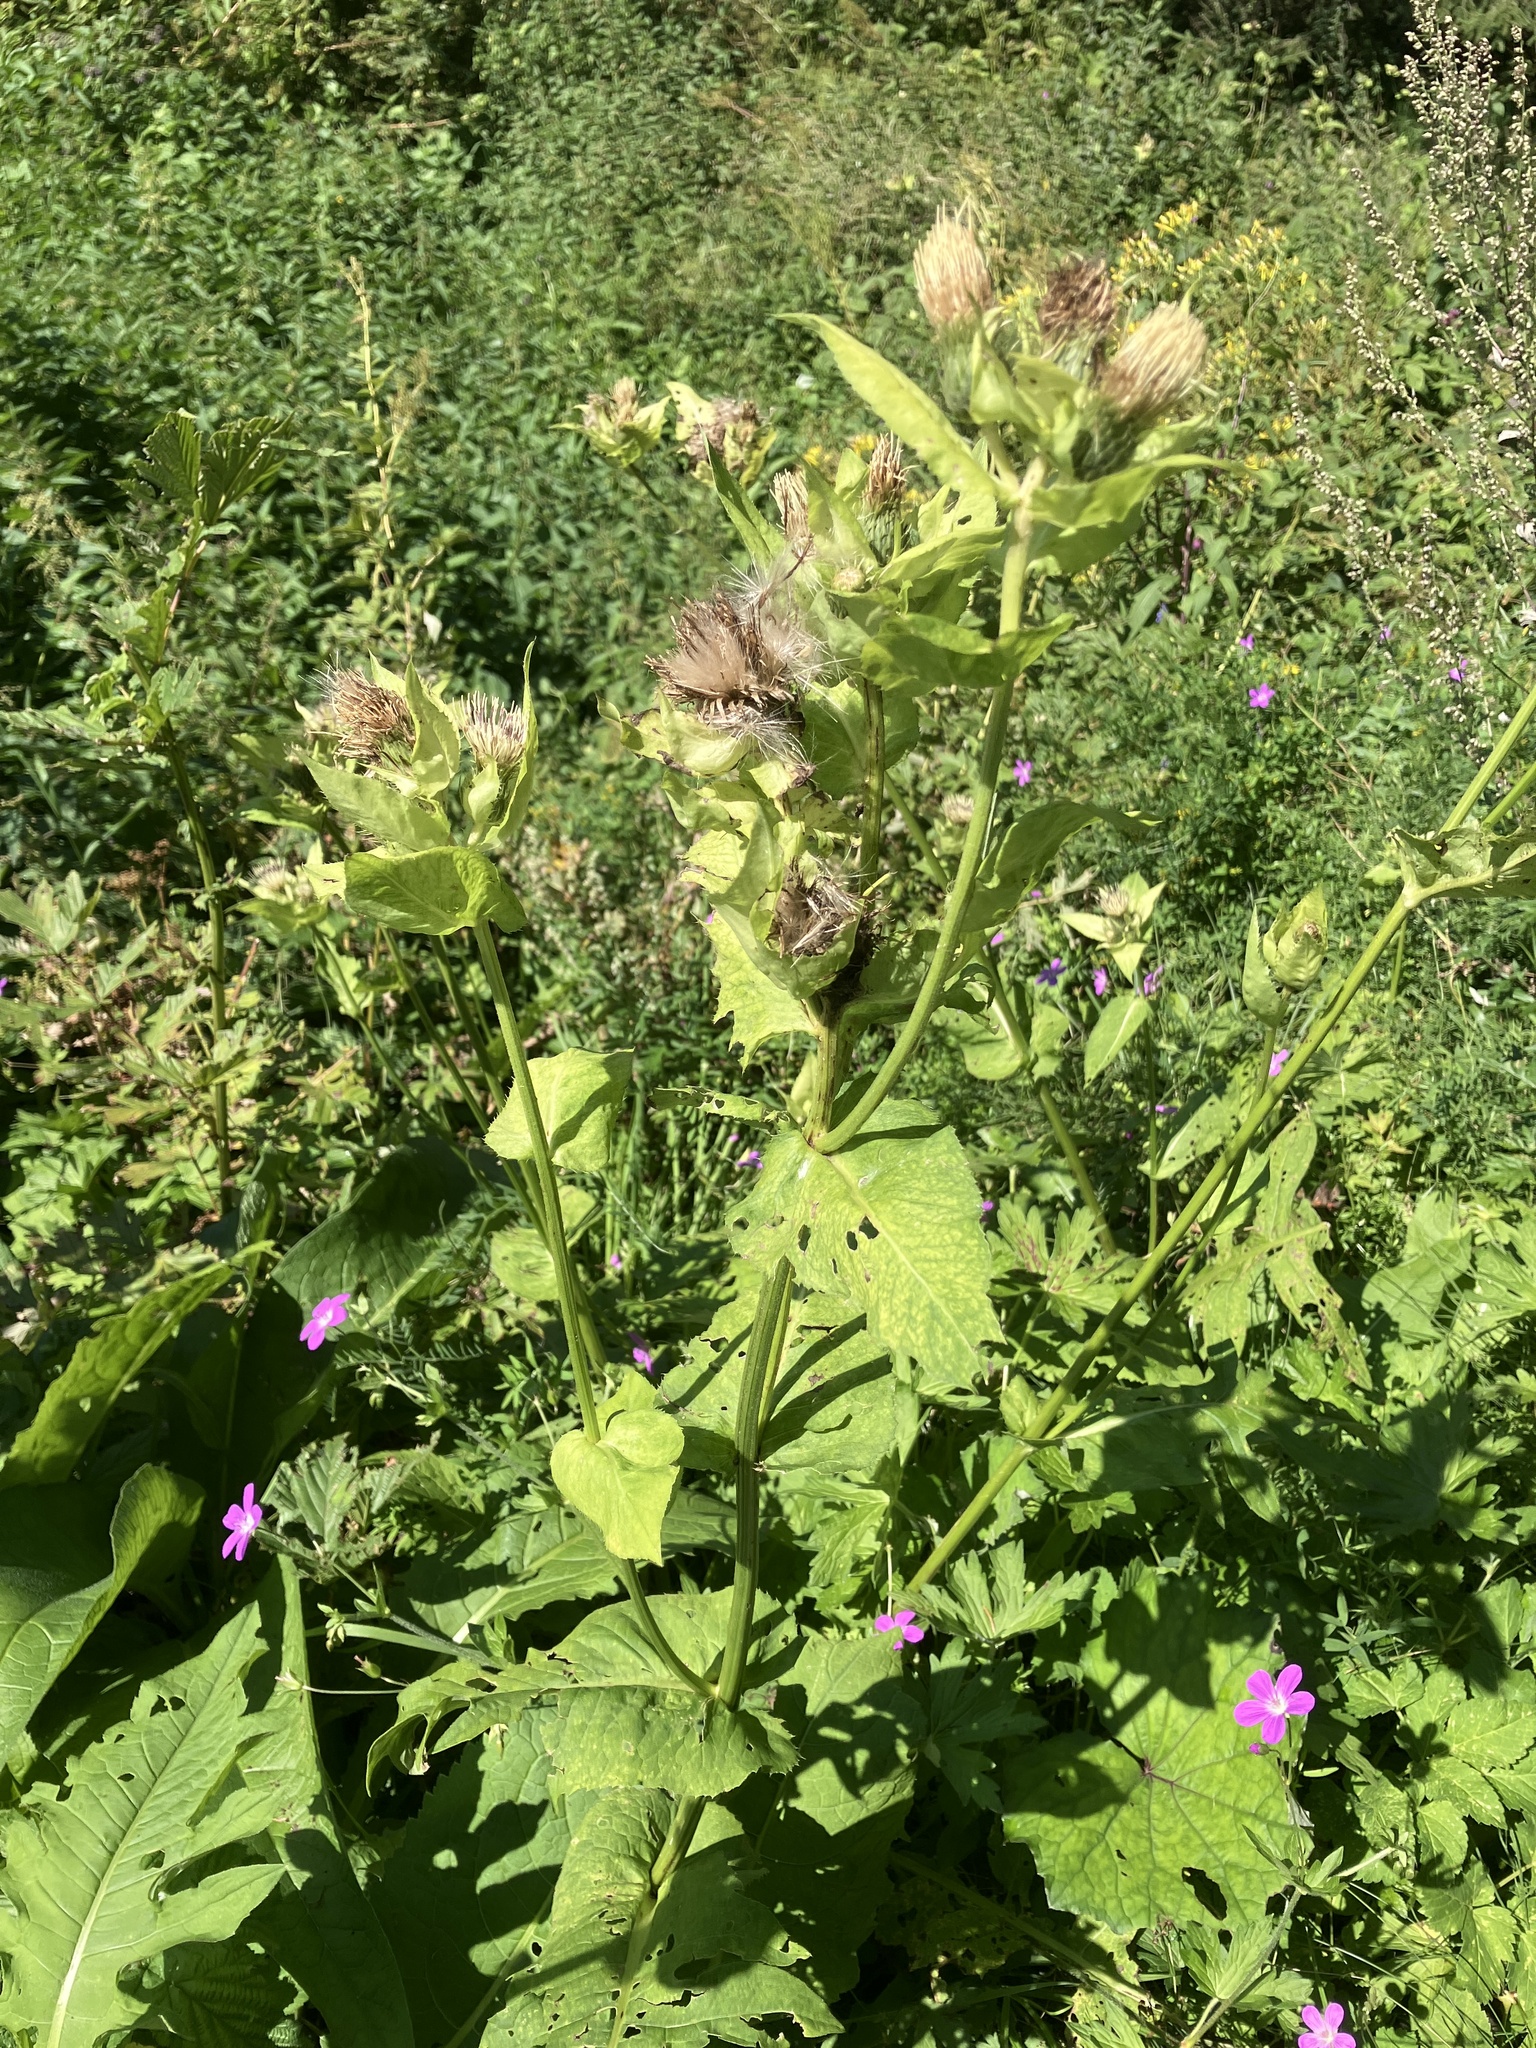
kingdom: Plantae
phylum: Tracheophyta
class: Magnoliopsida
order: Asterales
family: Asteraceae
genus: Cirsium
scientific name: Cirsium oleraceum
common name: Cabbage thistle
